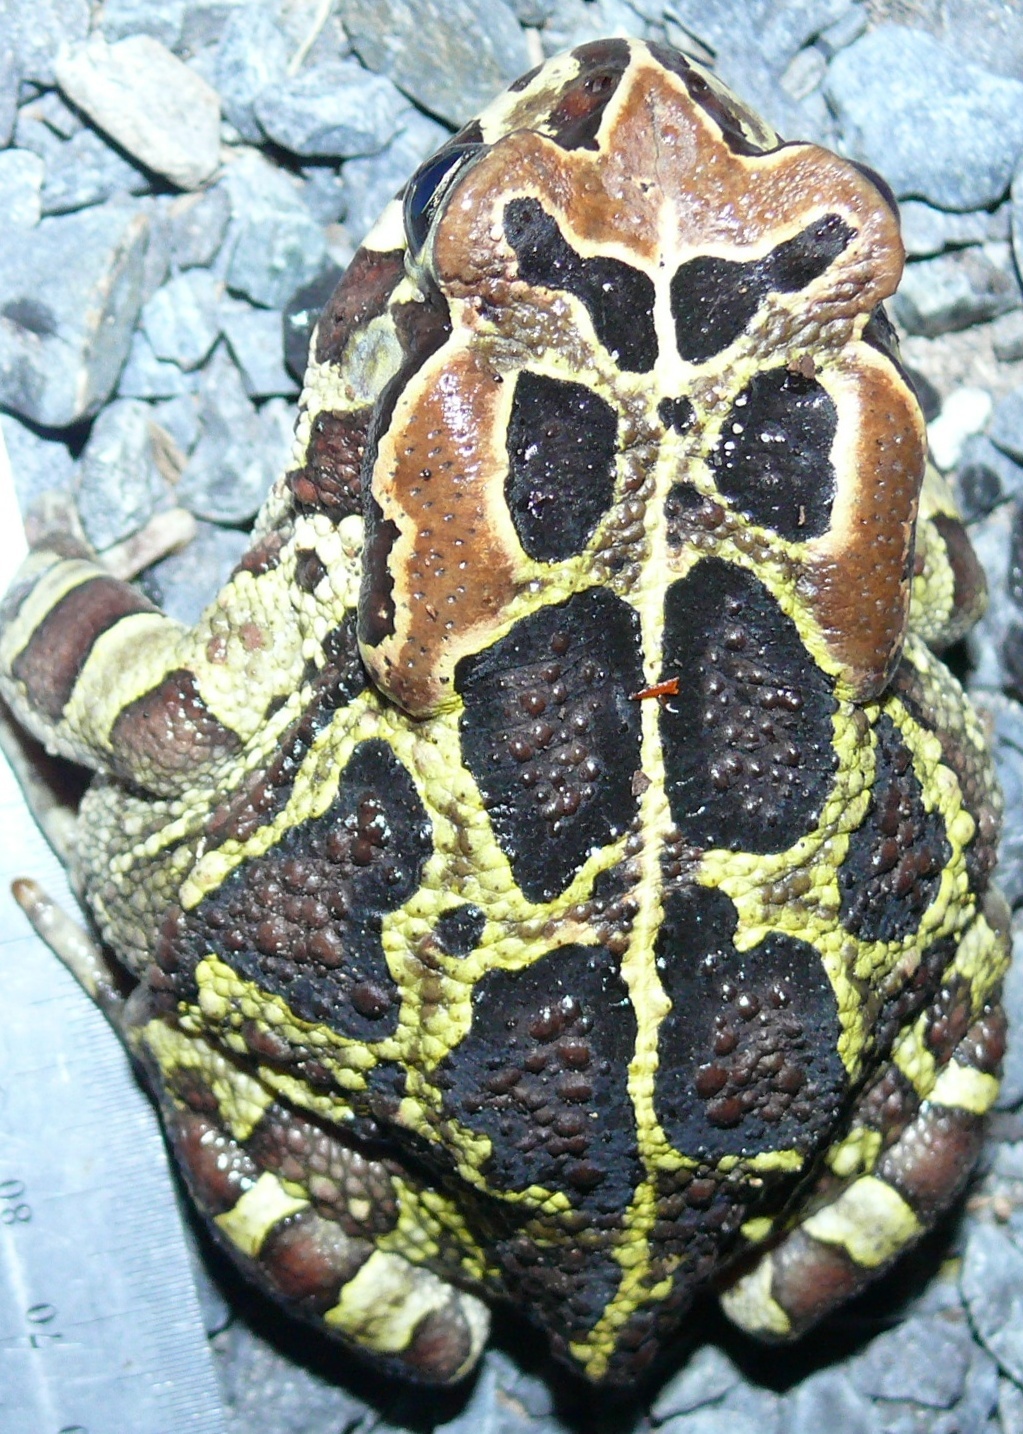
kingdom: Animalia
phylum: Chordata
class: Amphibia
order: Anura
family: Bufonidae
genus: Sclerophrys
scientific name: Sclerophrys pantherina
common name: Panther toad
